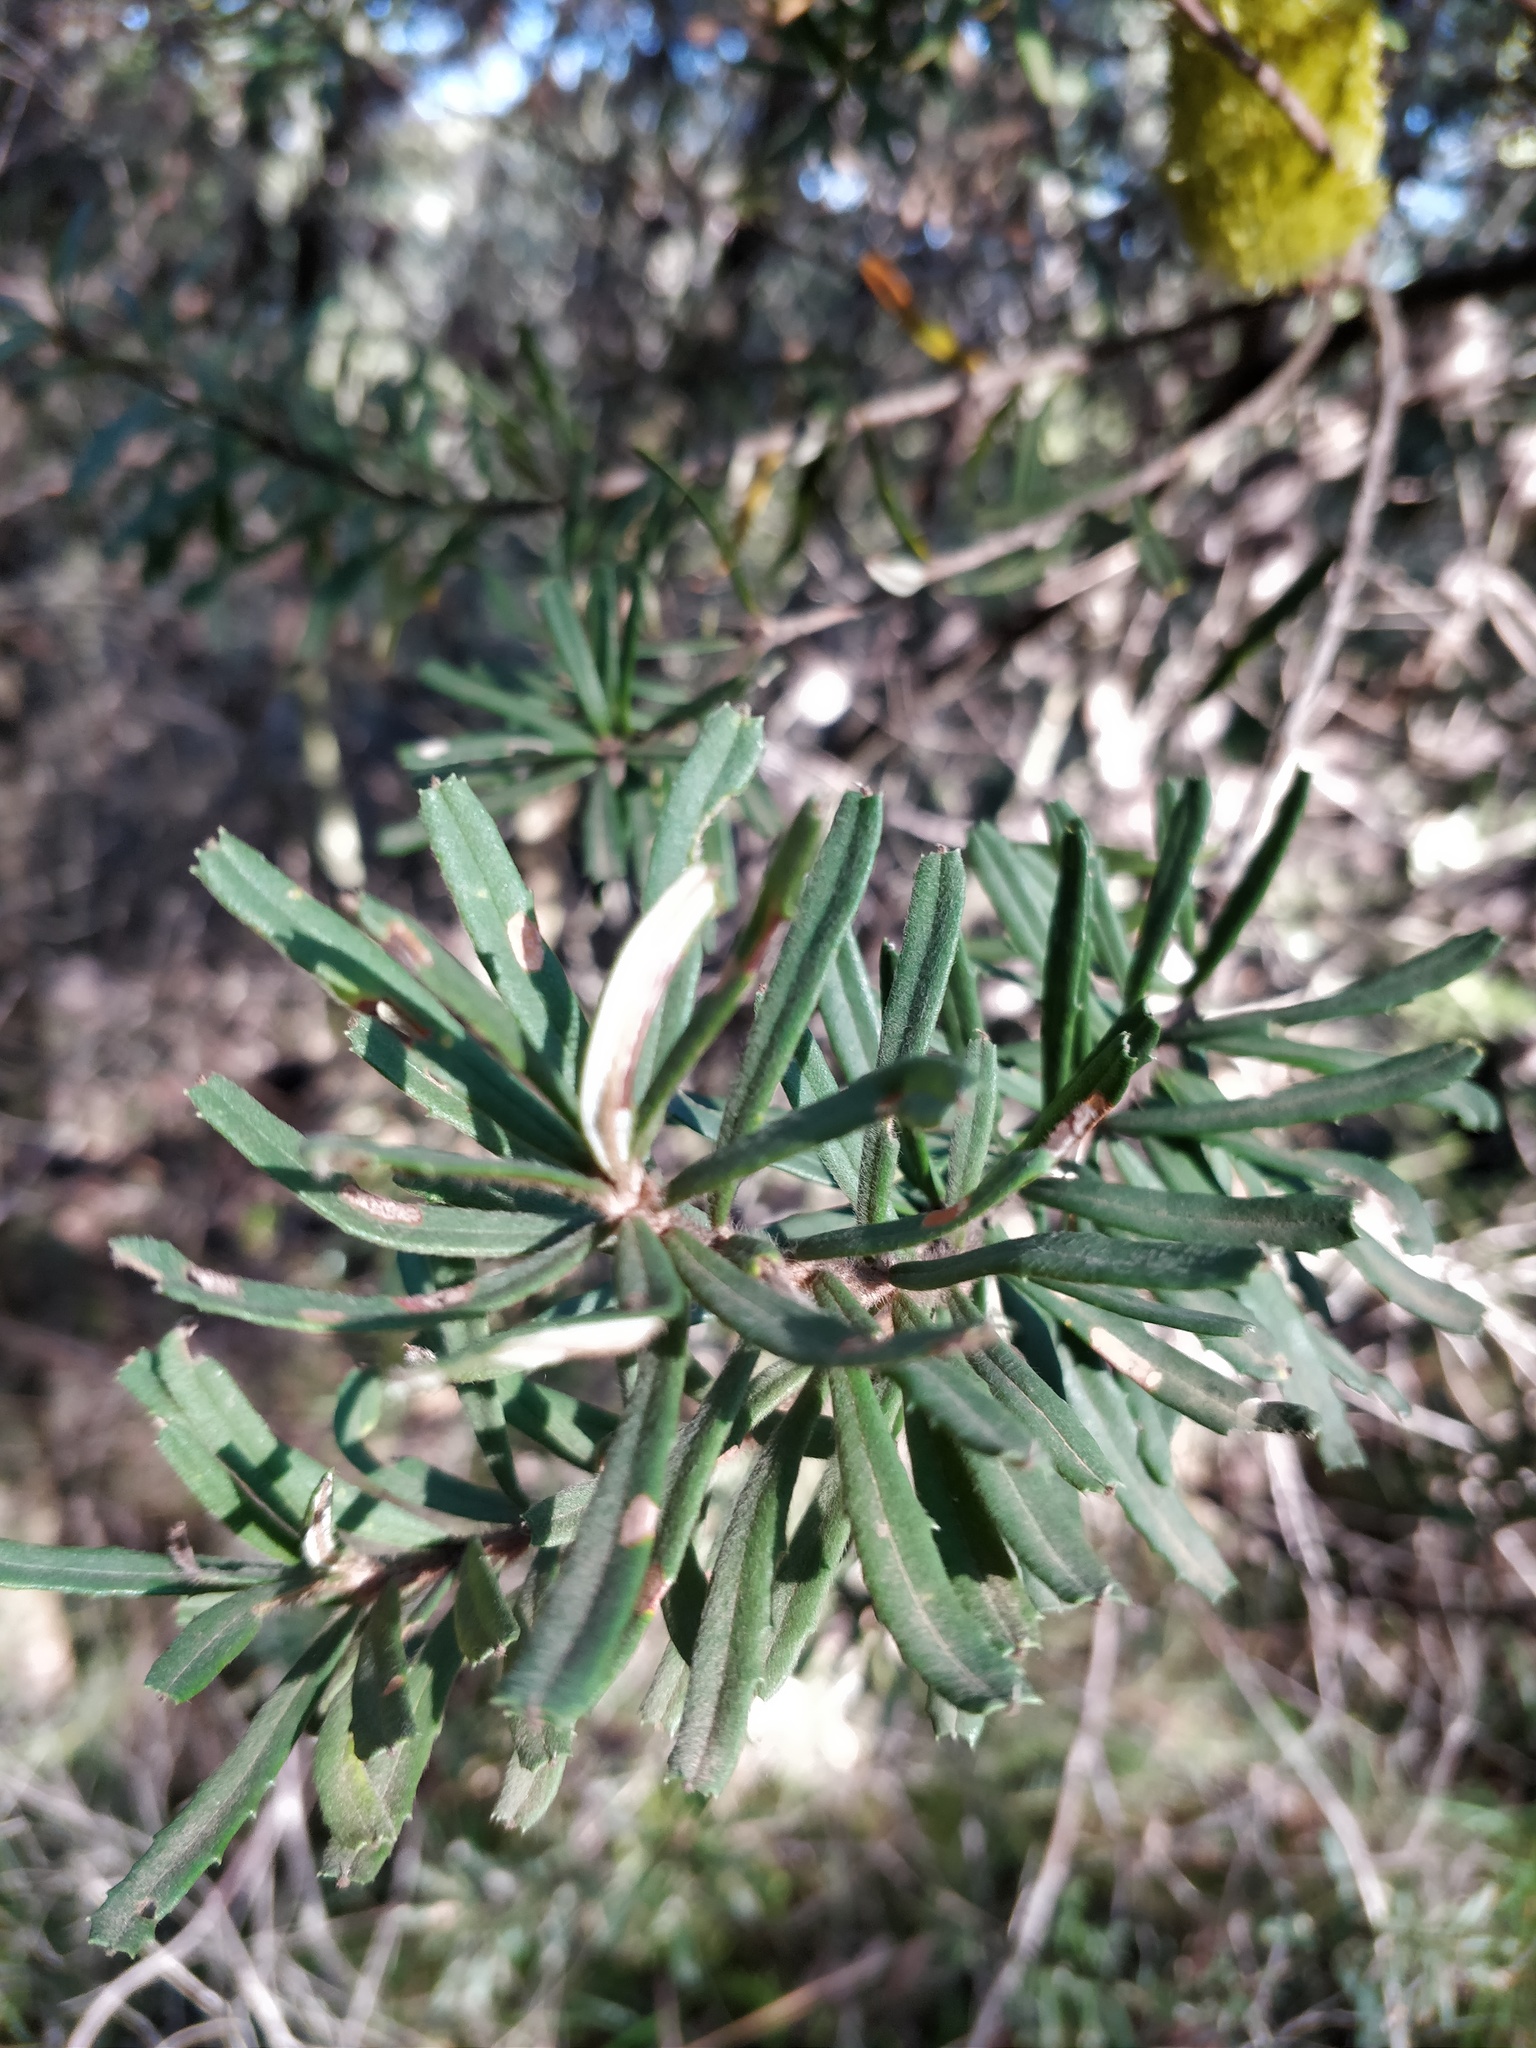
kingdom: Plantae
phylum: Tracheophyta
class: Magnoliopsida
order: Proteales
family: Proteaceae
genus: Banksia
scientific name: Banksia marginata
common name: Silver banksia
